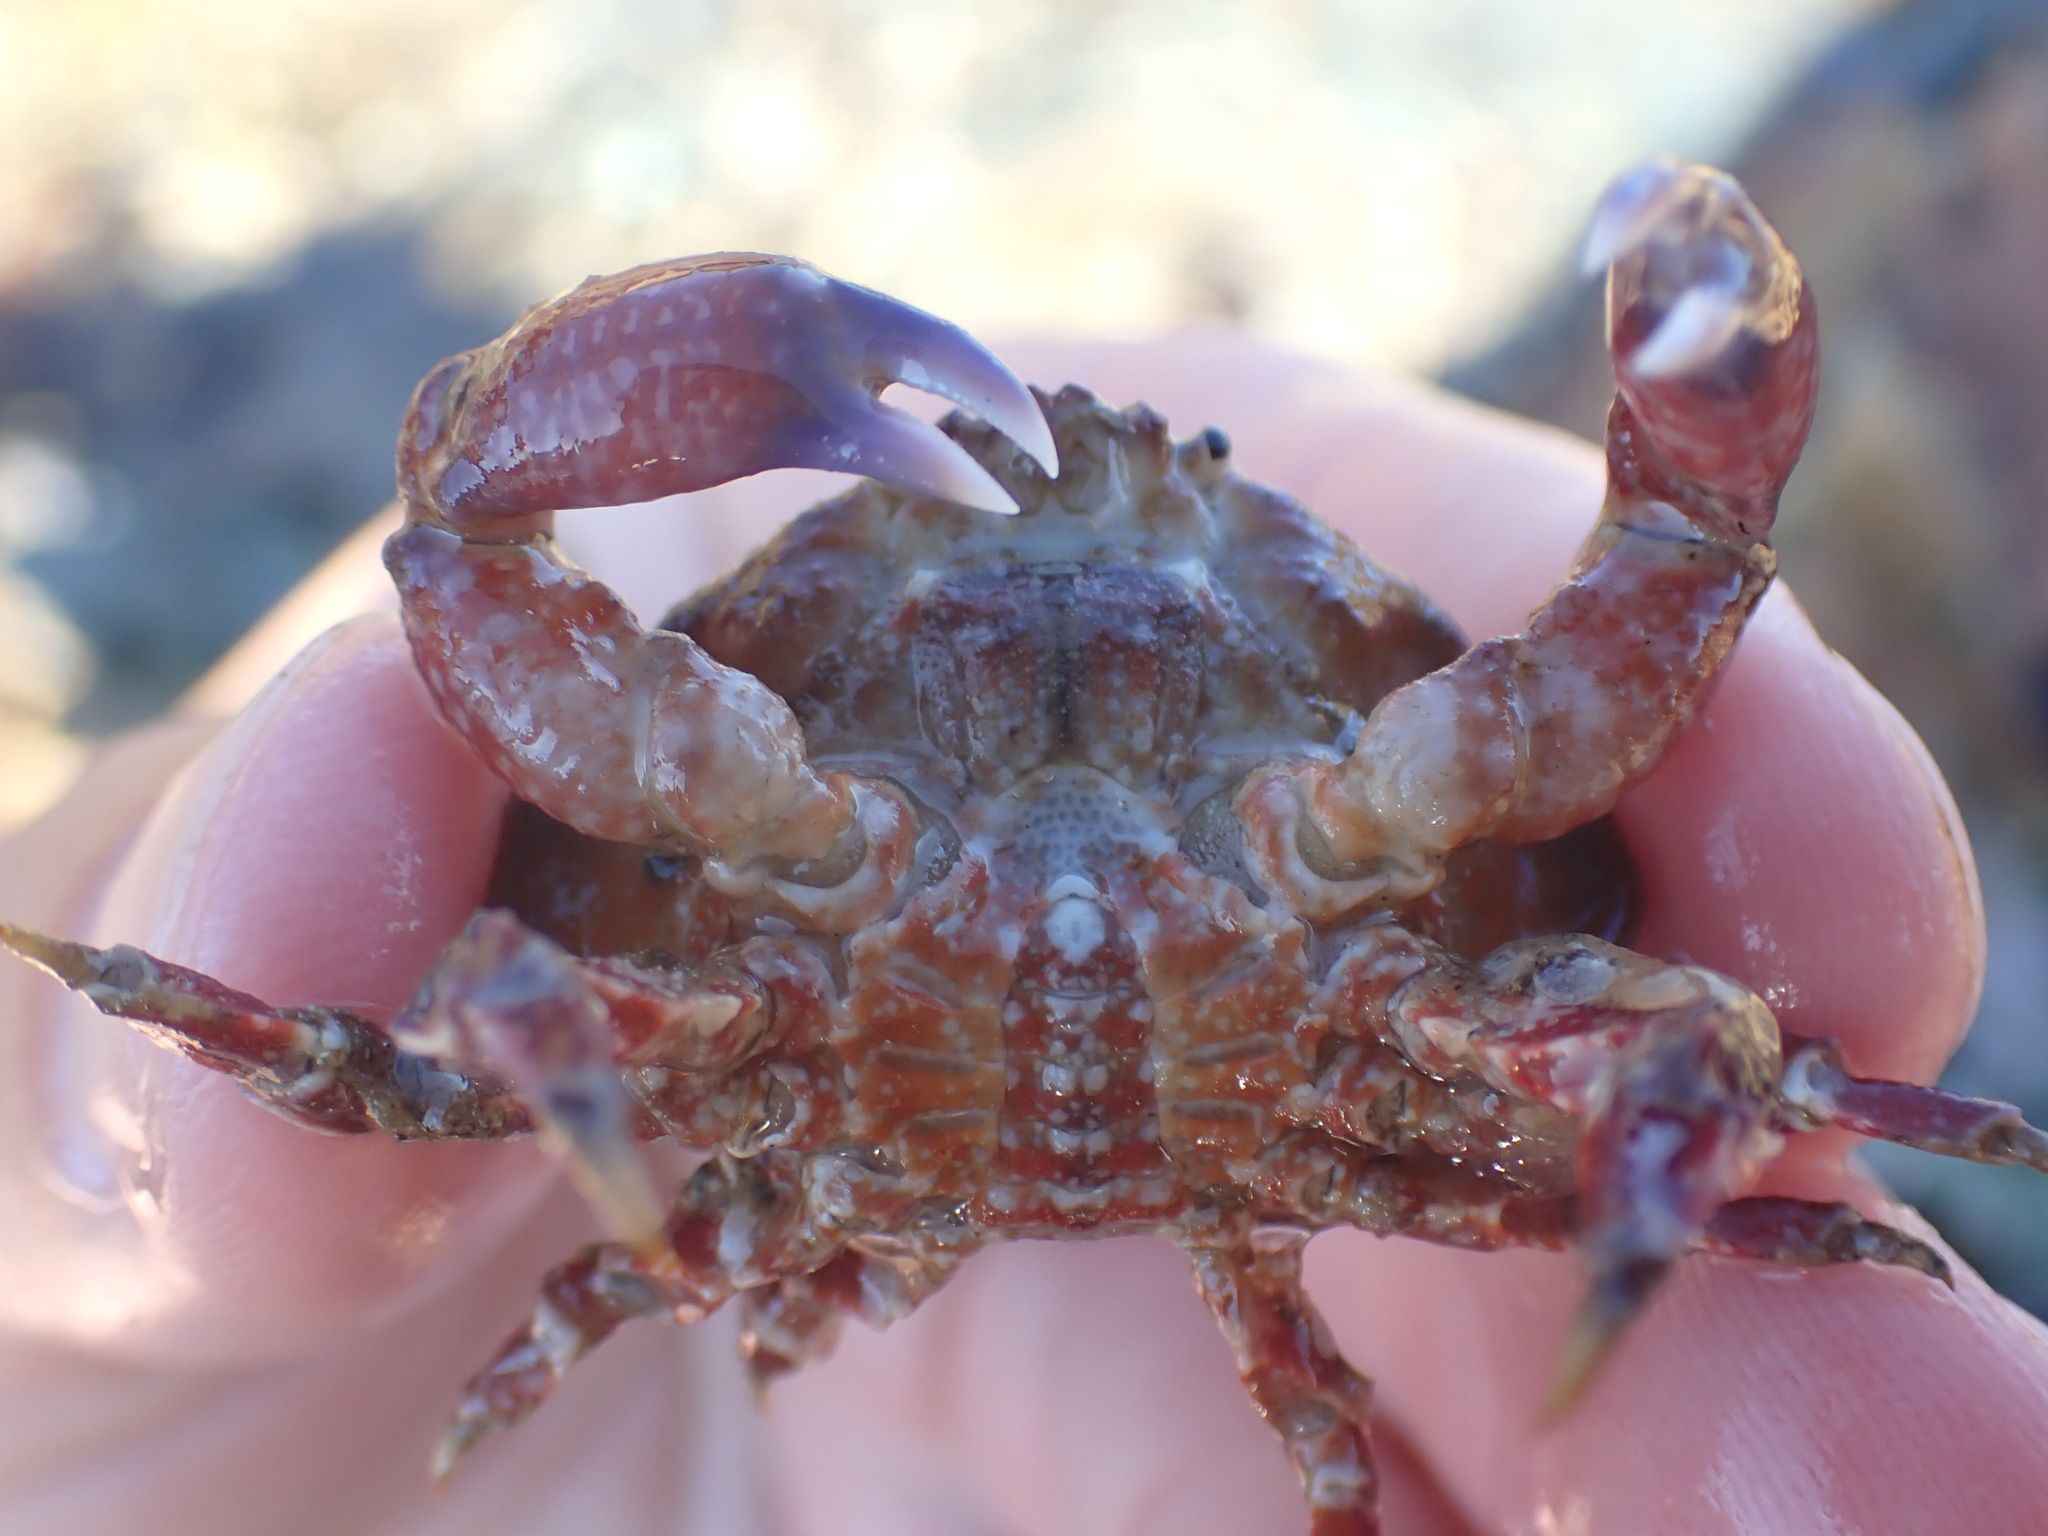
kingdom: Animalia
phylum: Arthropoda
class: Malacostraca
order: Decapoda
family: Majidae
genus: Eurynolambrus
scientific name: Eurynolambrus australis
